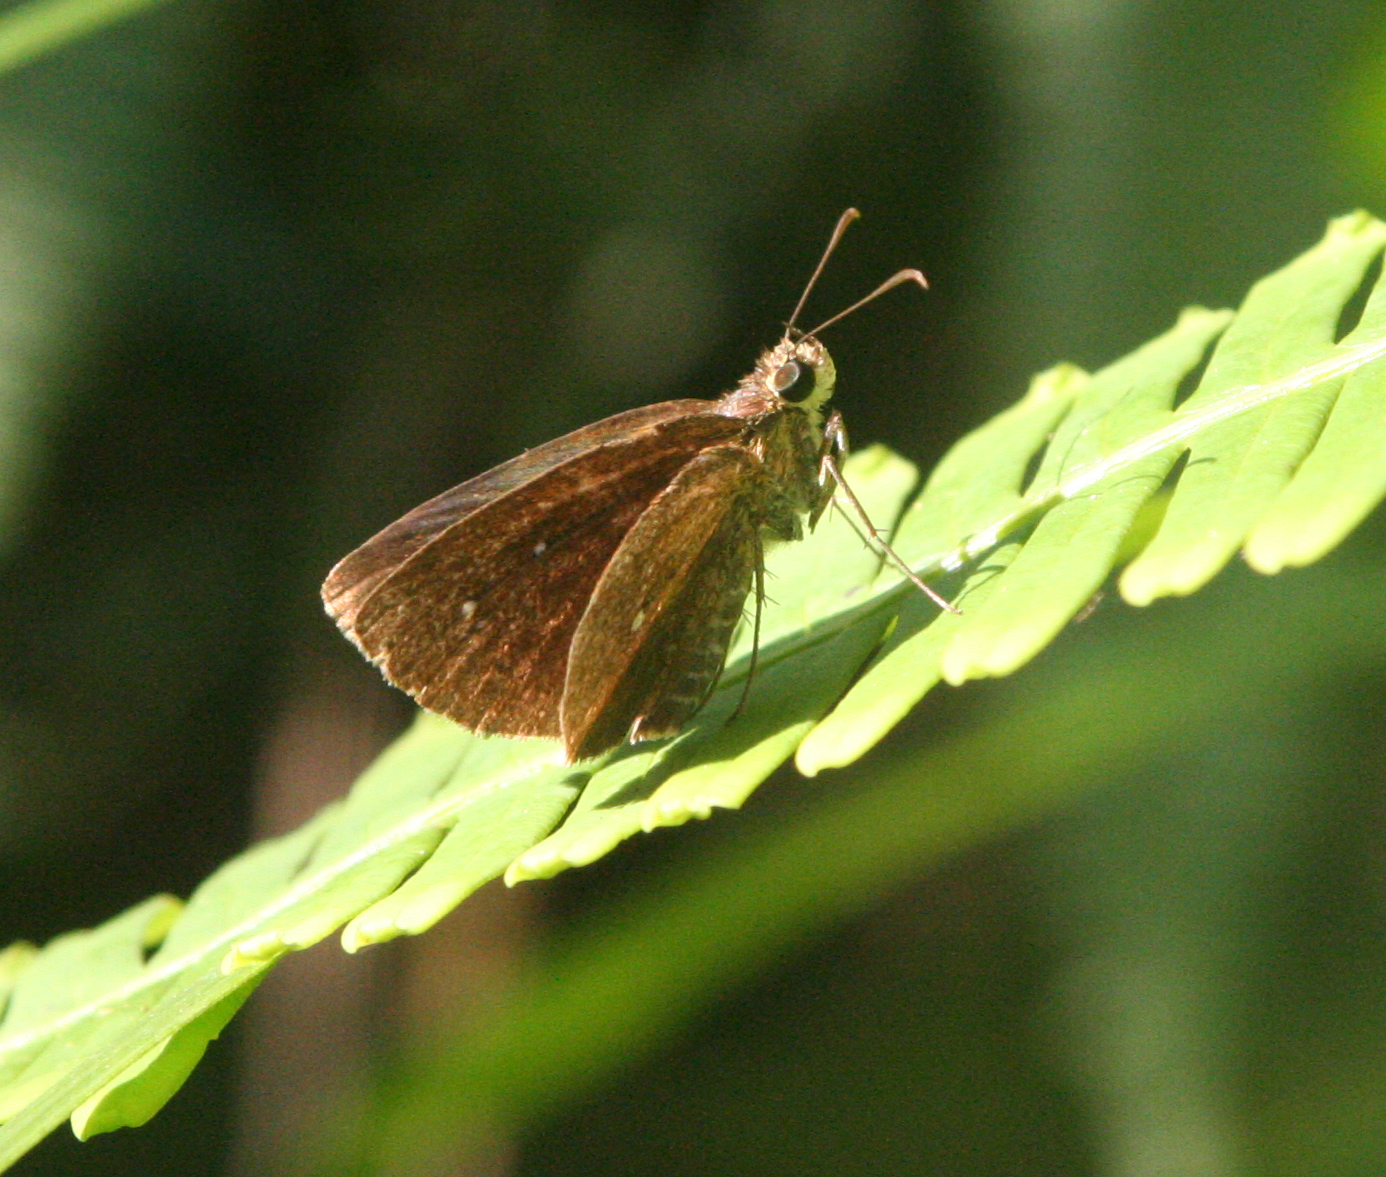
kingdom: Animalia
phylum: Arthropoda
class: Insecta
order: Lepidoptera
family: Hesperiidae
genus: Iambrix
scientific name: Iambrix salsala
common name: Chestnut bob
